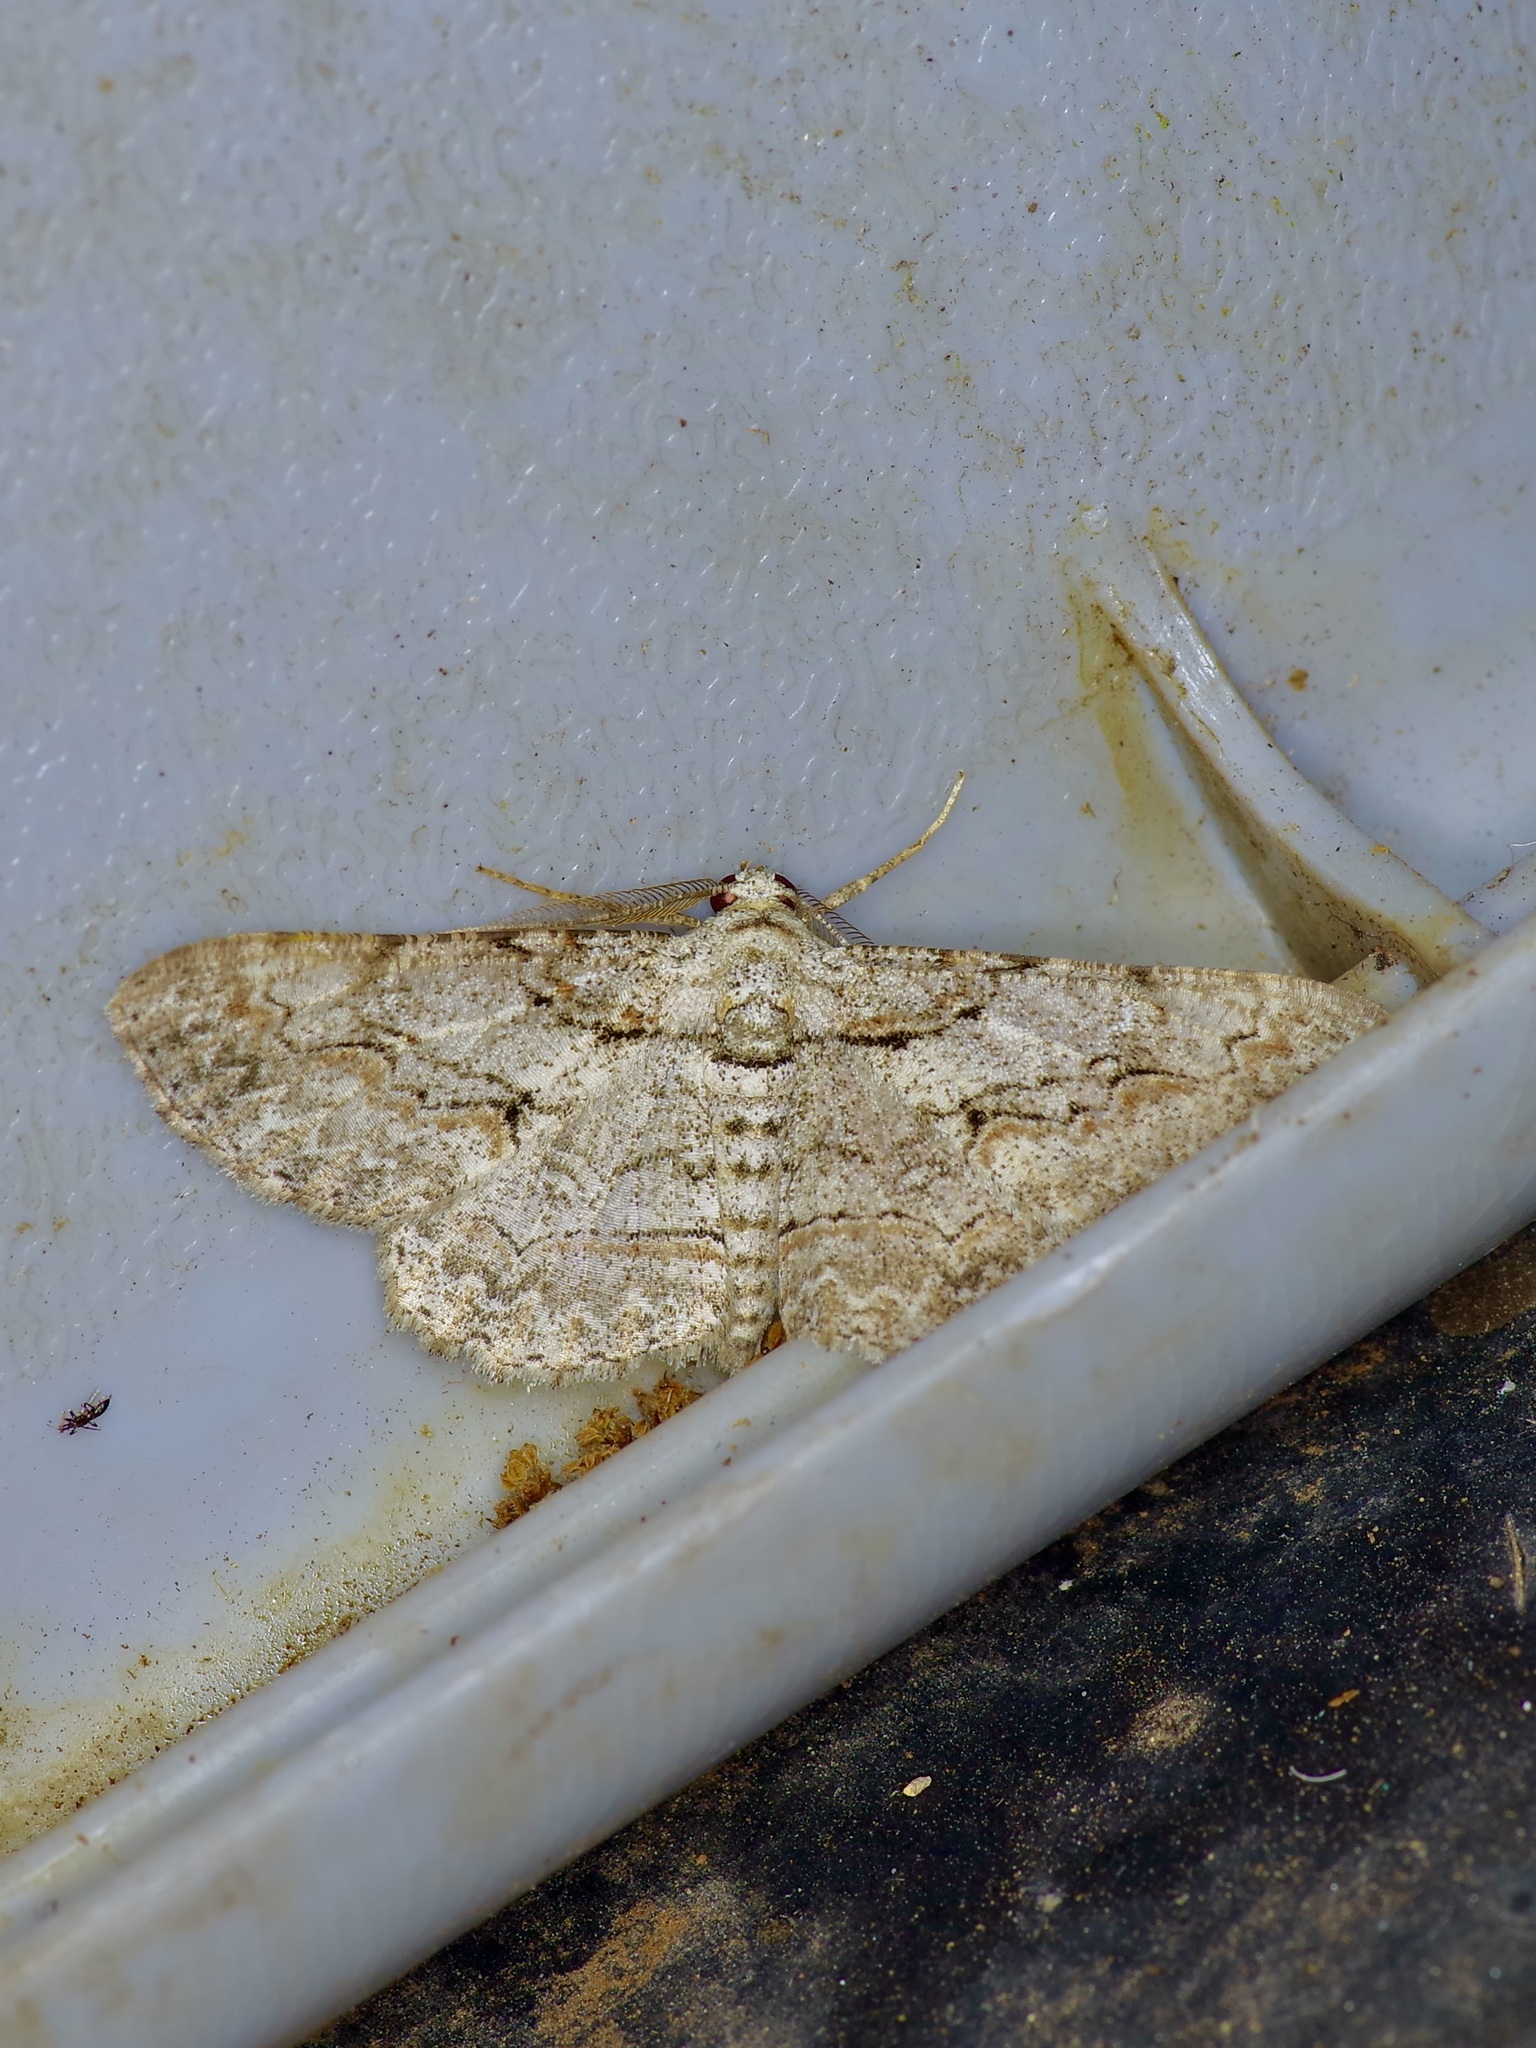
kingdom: Animalia
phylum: Arthropoda
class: Insecta
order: Lepidoptera
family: Geometridae
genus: Iridopsis
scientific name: Iridopsis defectaria
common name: Brown-shaded gray
